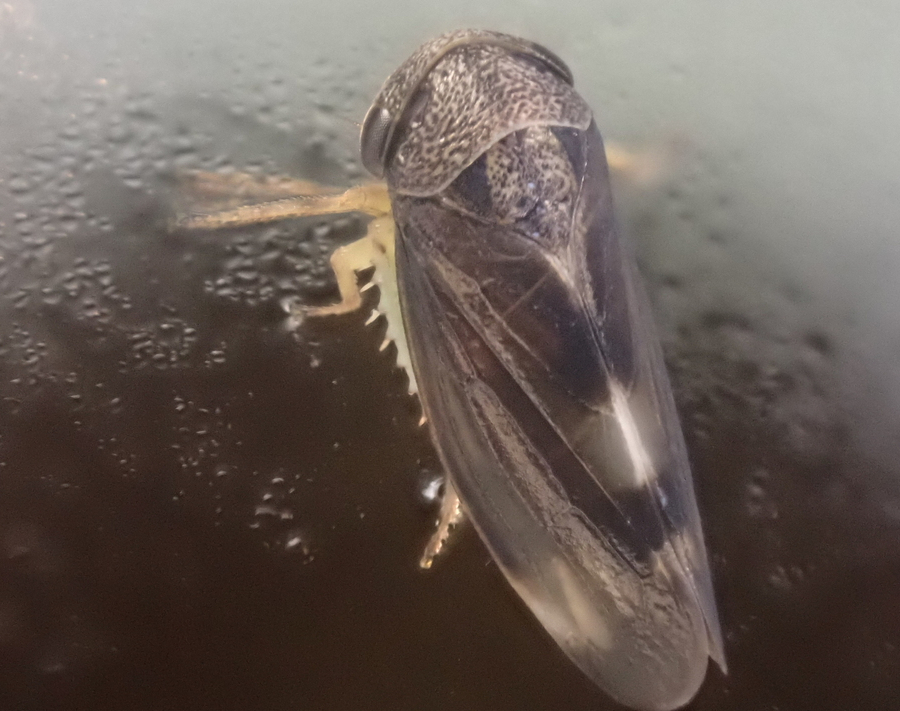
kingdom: Animalia
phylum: Arthropoda
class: Insecta
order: Hemiptera
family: Cicadellidae
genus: Pediopsoides
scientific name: Pediopsoides distinctus
